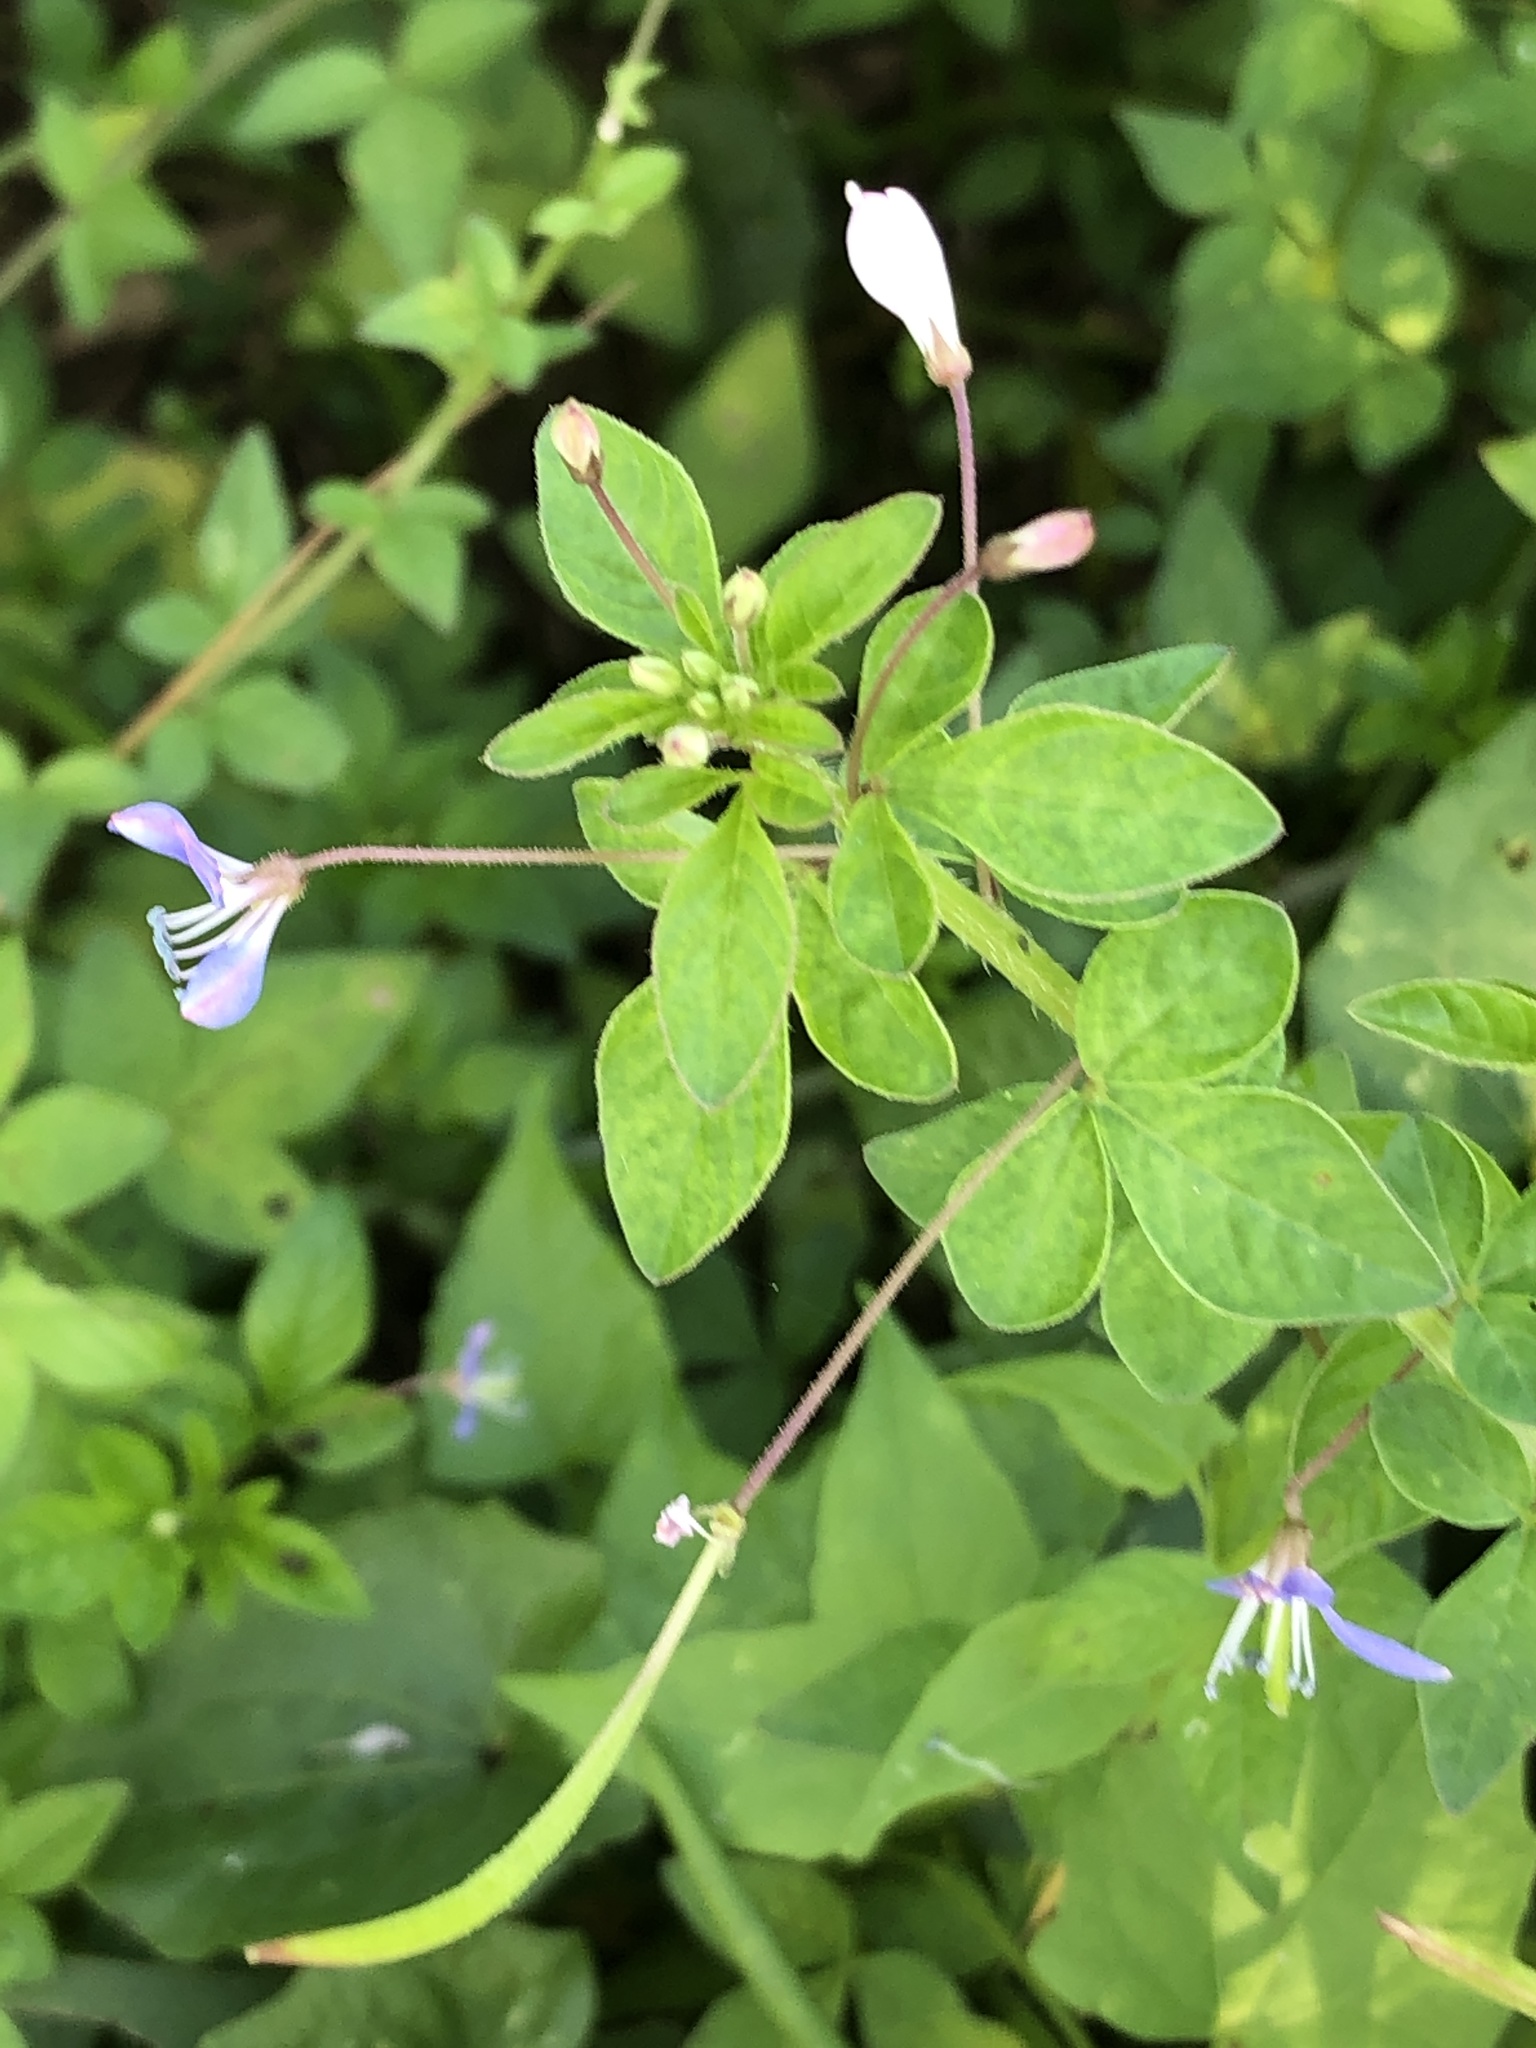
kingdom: Plantae
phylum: Tracheophyta
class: Magnoliopsida
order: Brassicales
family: Cleomaceae
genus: Sieruela
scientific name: Sieruela rutidosperma
